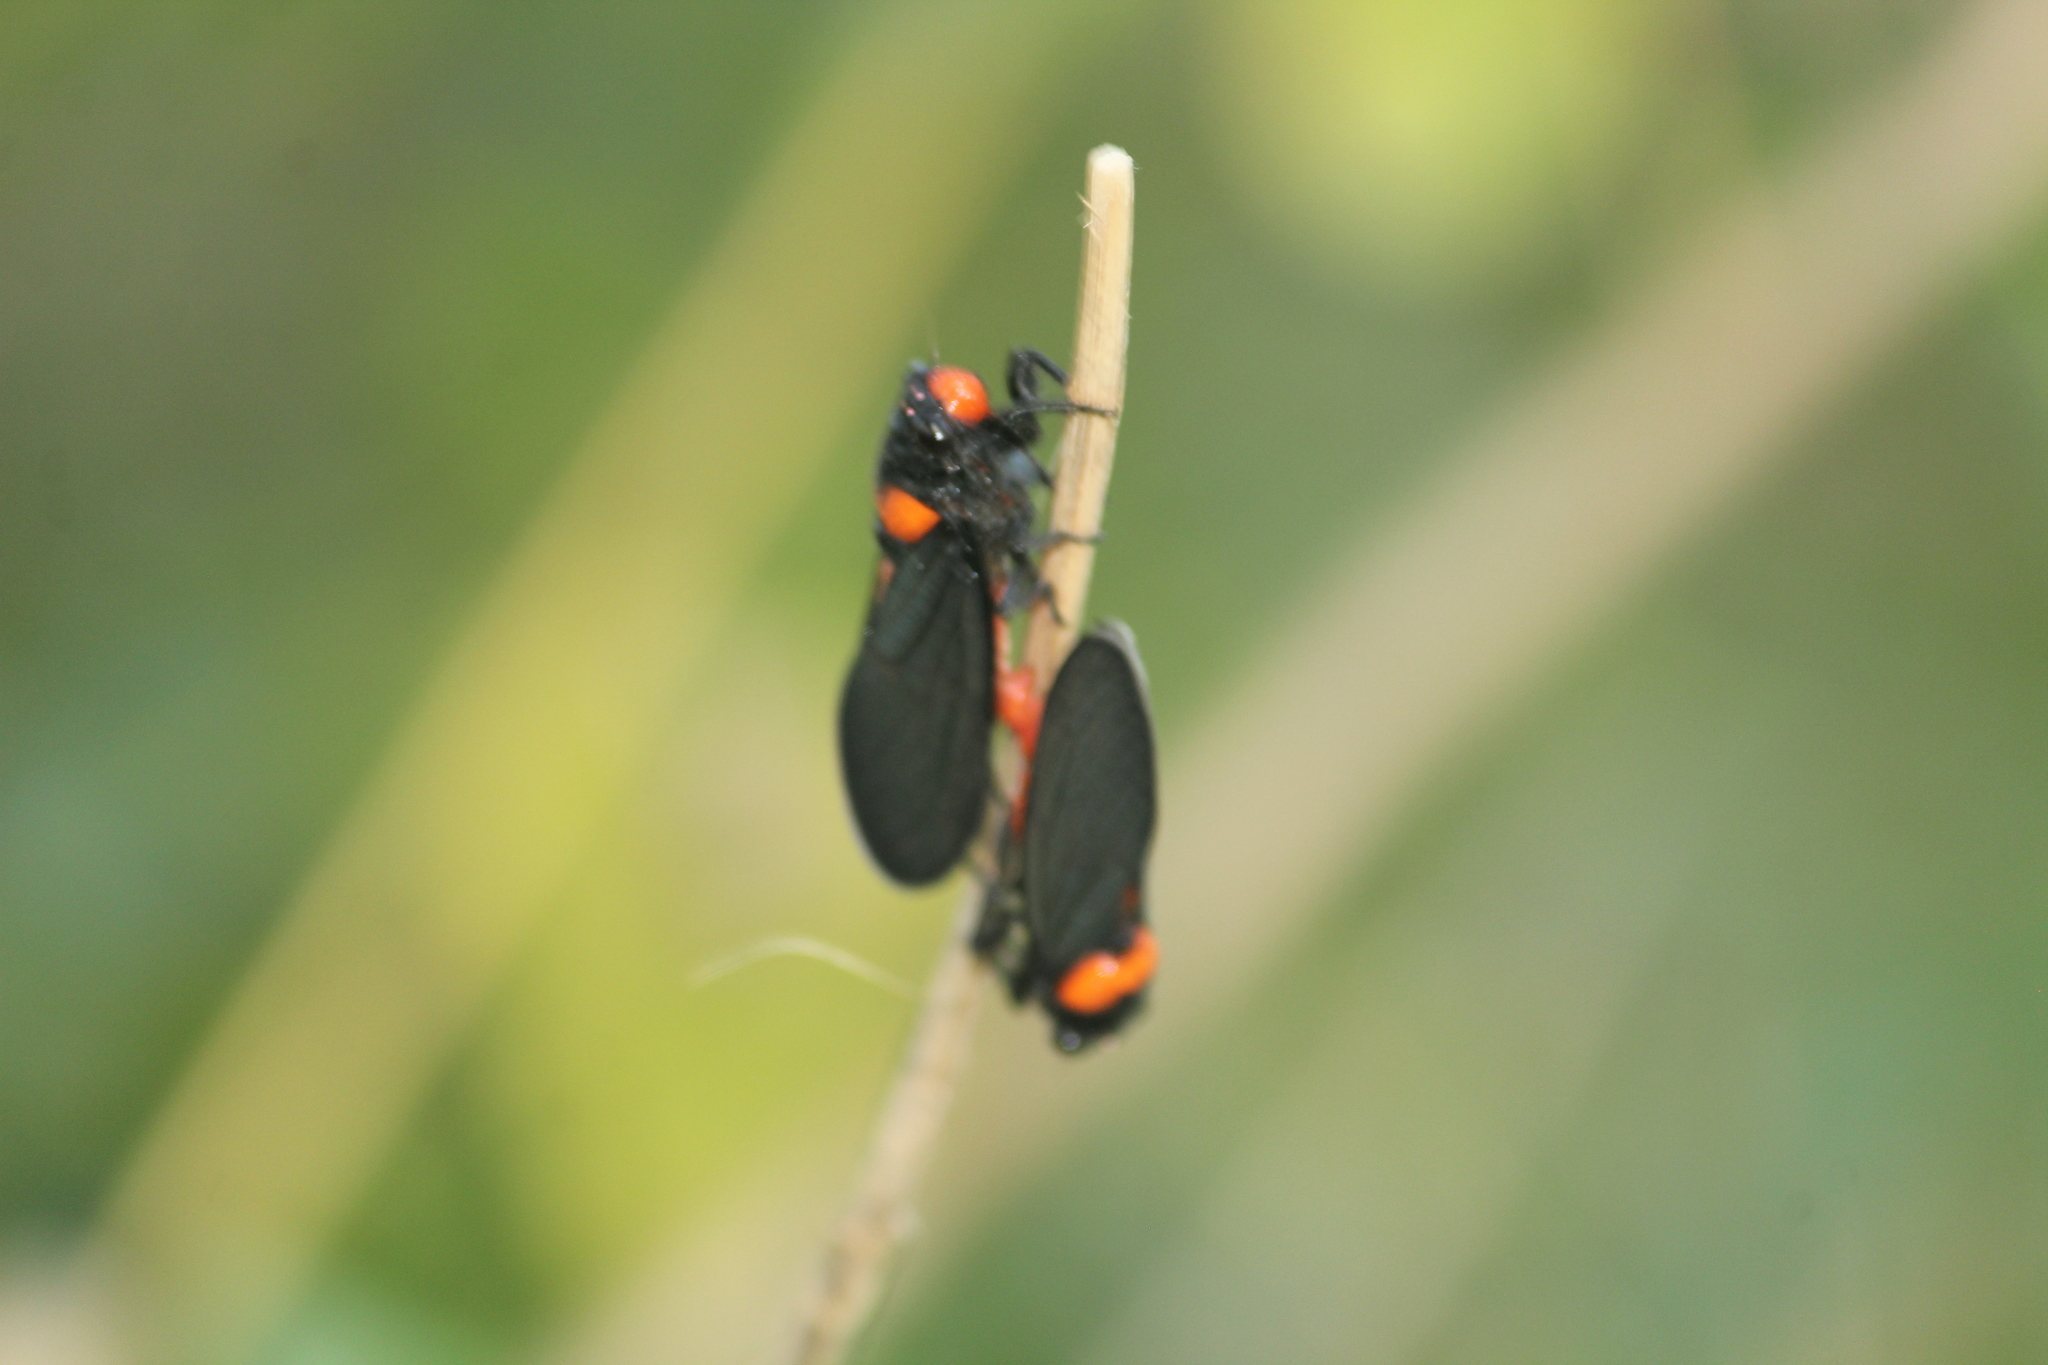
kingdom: Animalia
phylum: Arthropoda
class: Insecta
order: Hemiptera
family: Cicadidae
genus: Huechys
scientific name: Huechys beata
